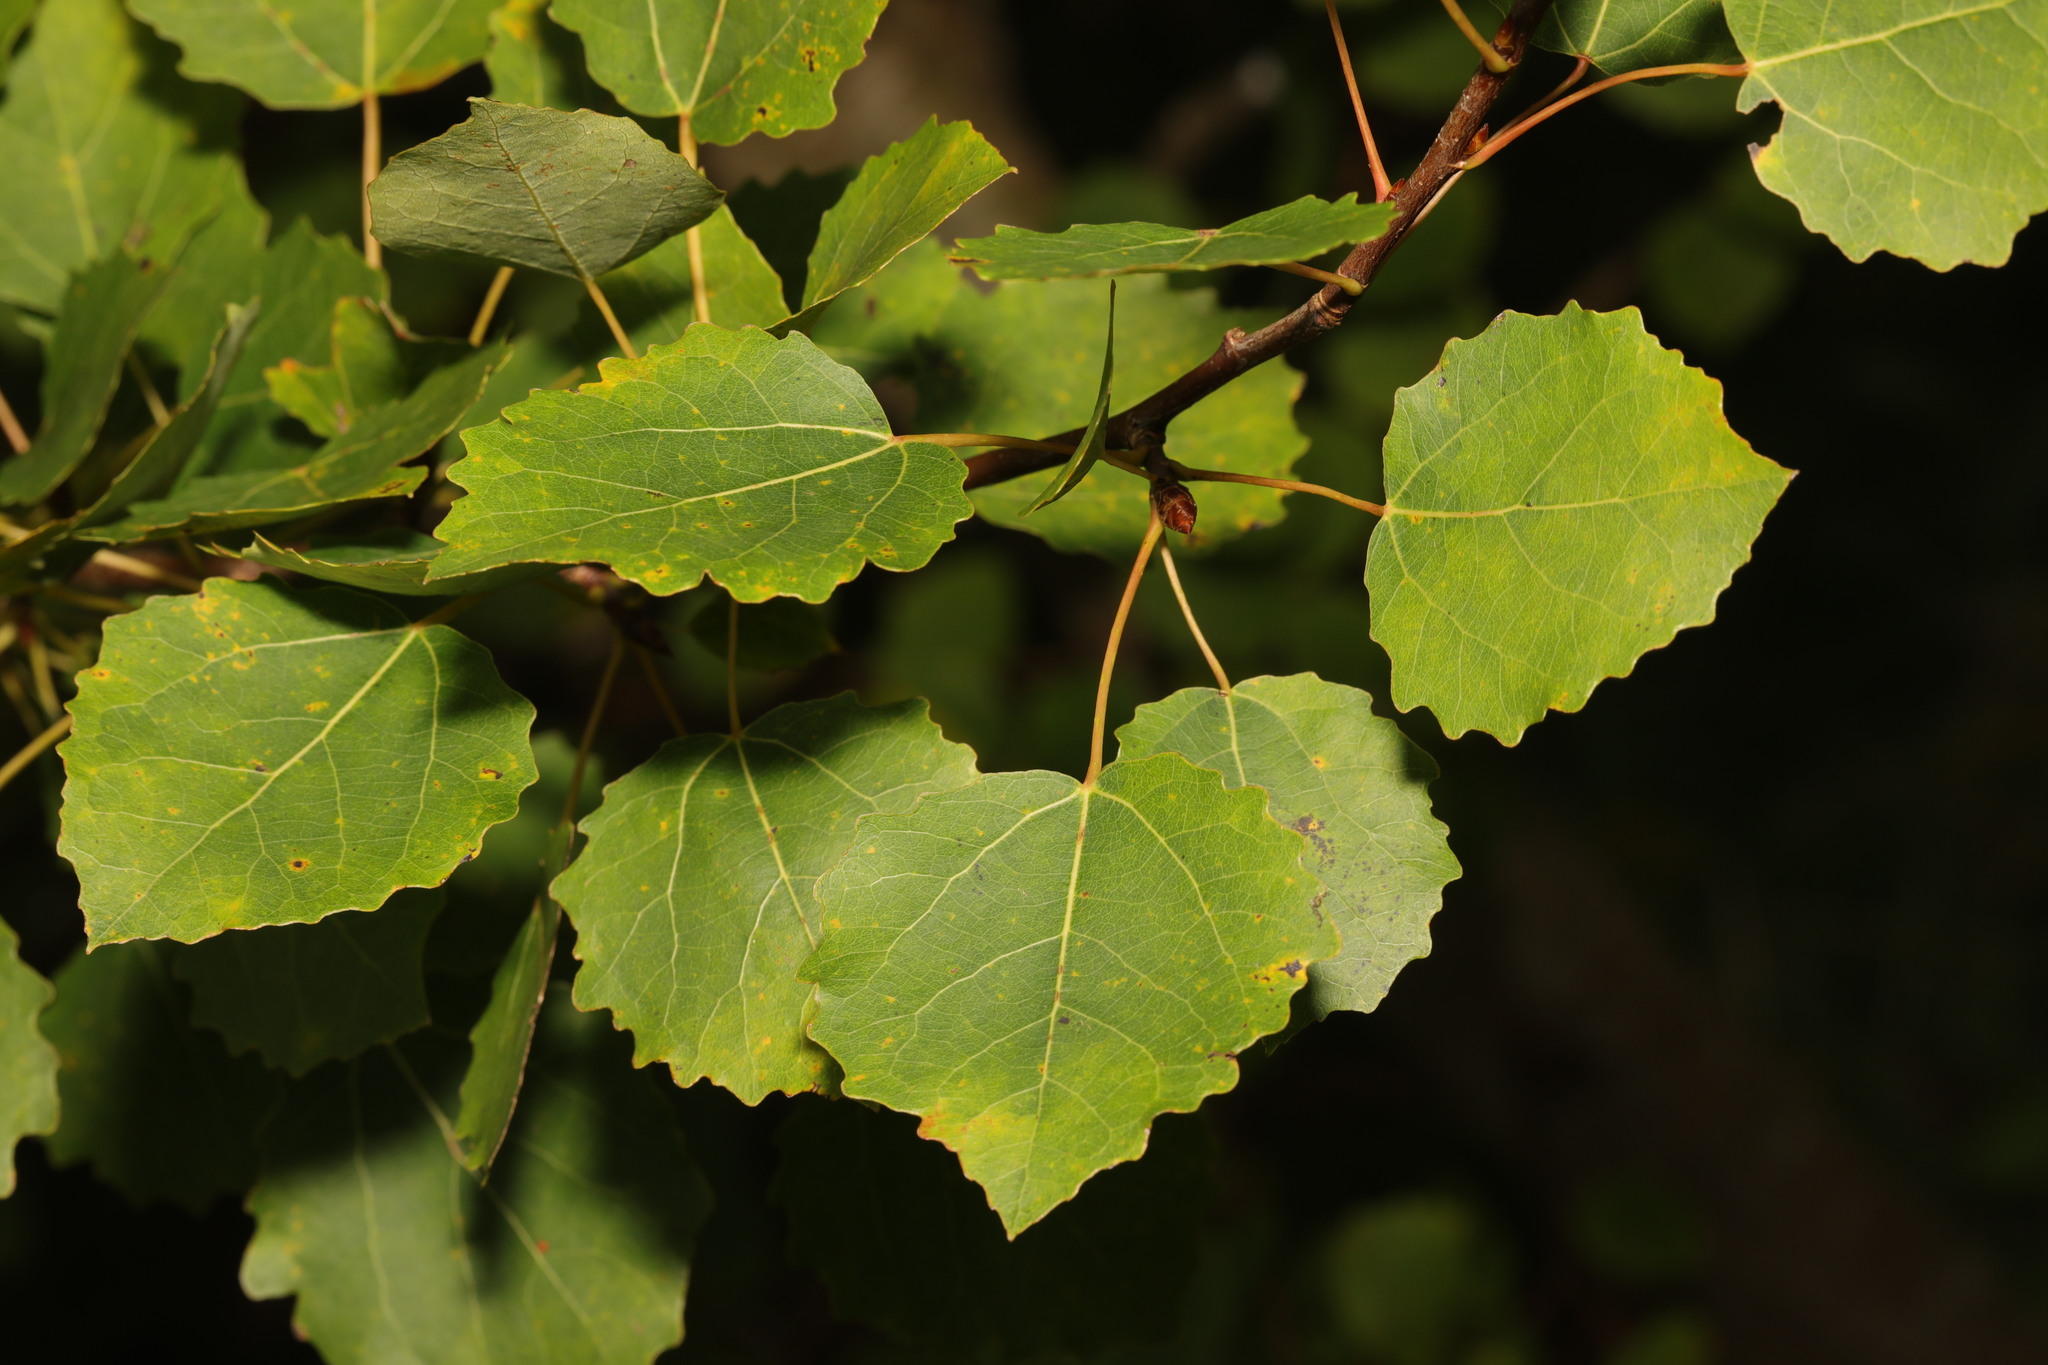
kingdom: Plantae
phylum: Tracheophyta
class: Magnoliopsida
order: Malpighiales
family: Salicaceae
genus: Populus
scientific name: Populus tremula
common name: European aspen
